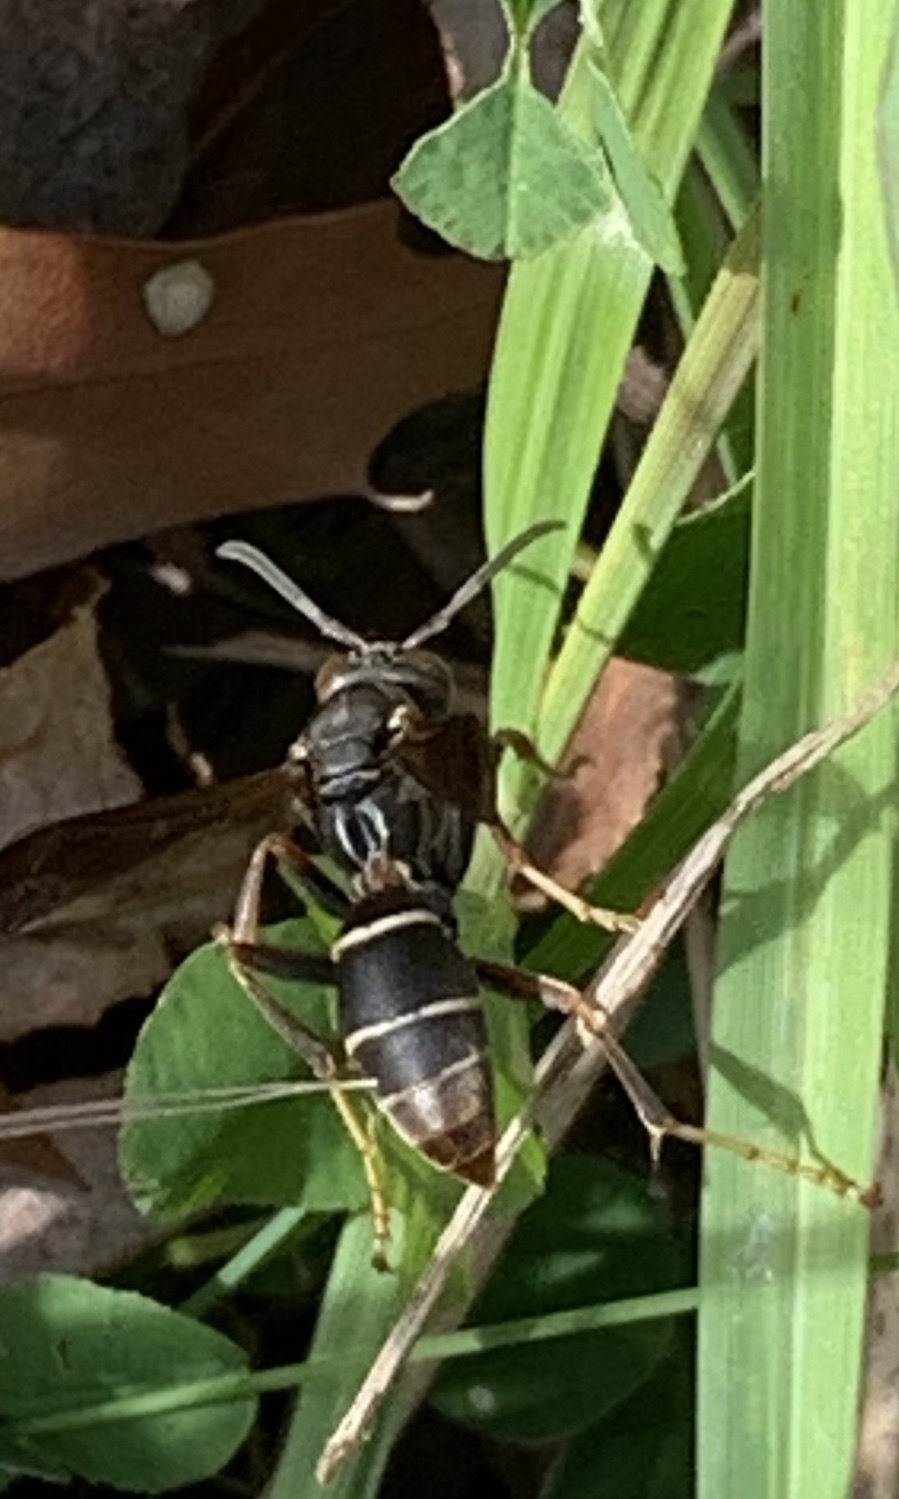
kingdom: Animalia
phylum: Arthropoda
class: Insecta
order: Hymenoptera
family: Eumenidae
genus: Polistes
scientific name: Polistes fuscatus
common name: Dark paper wasp
